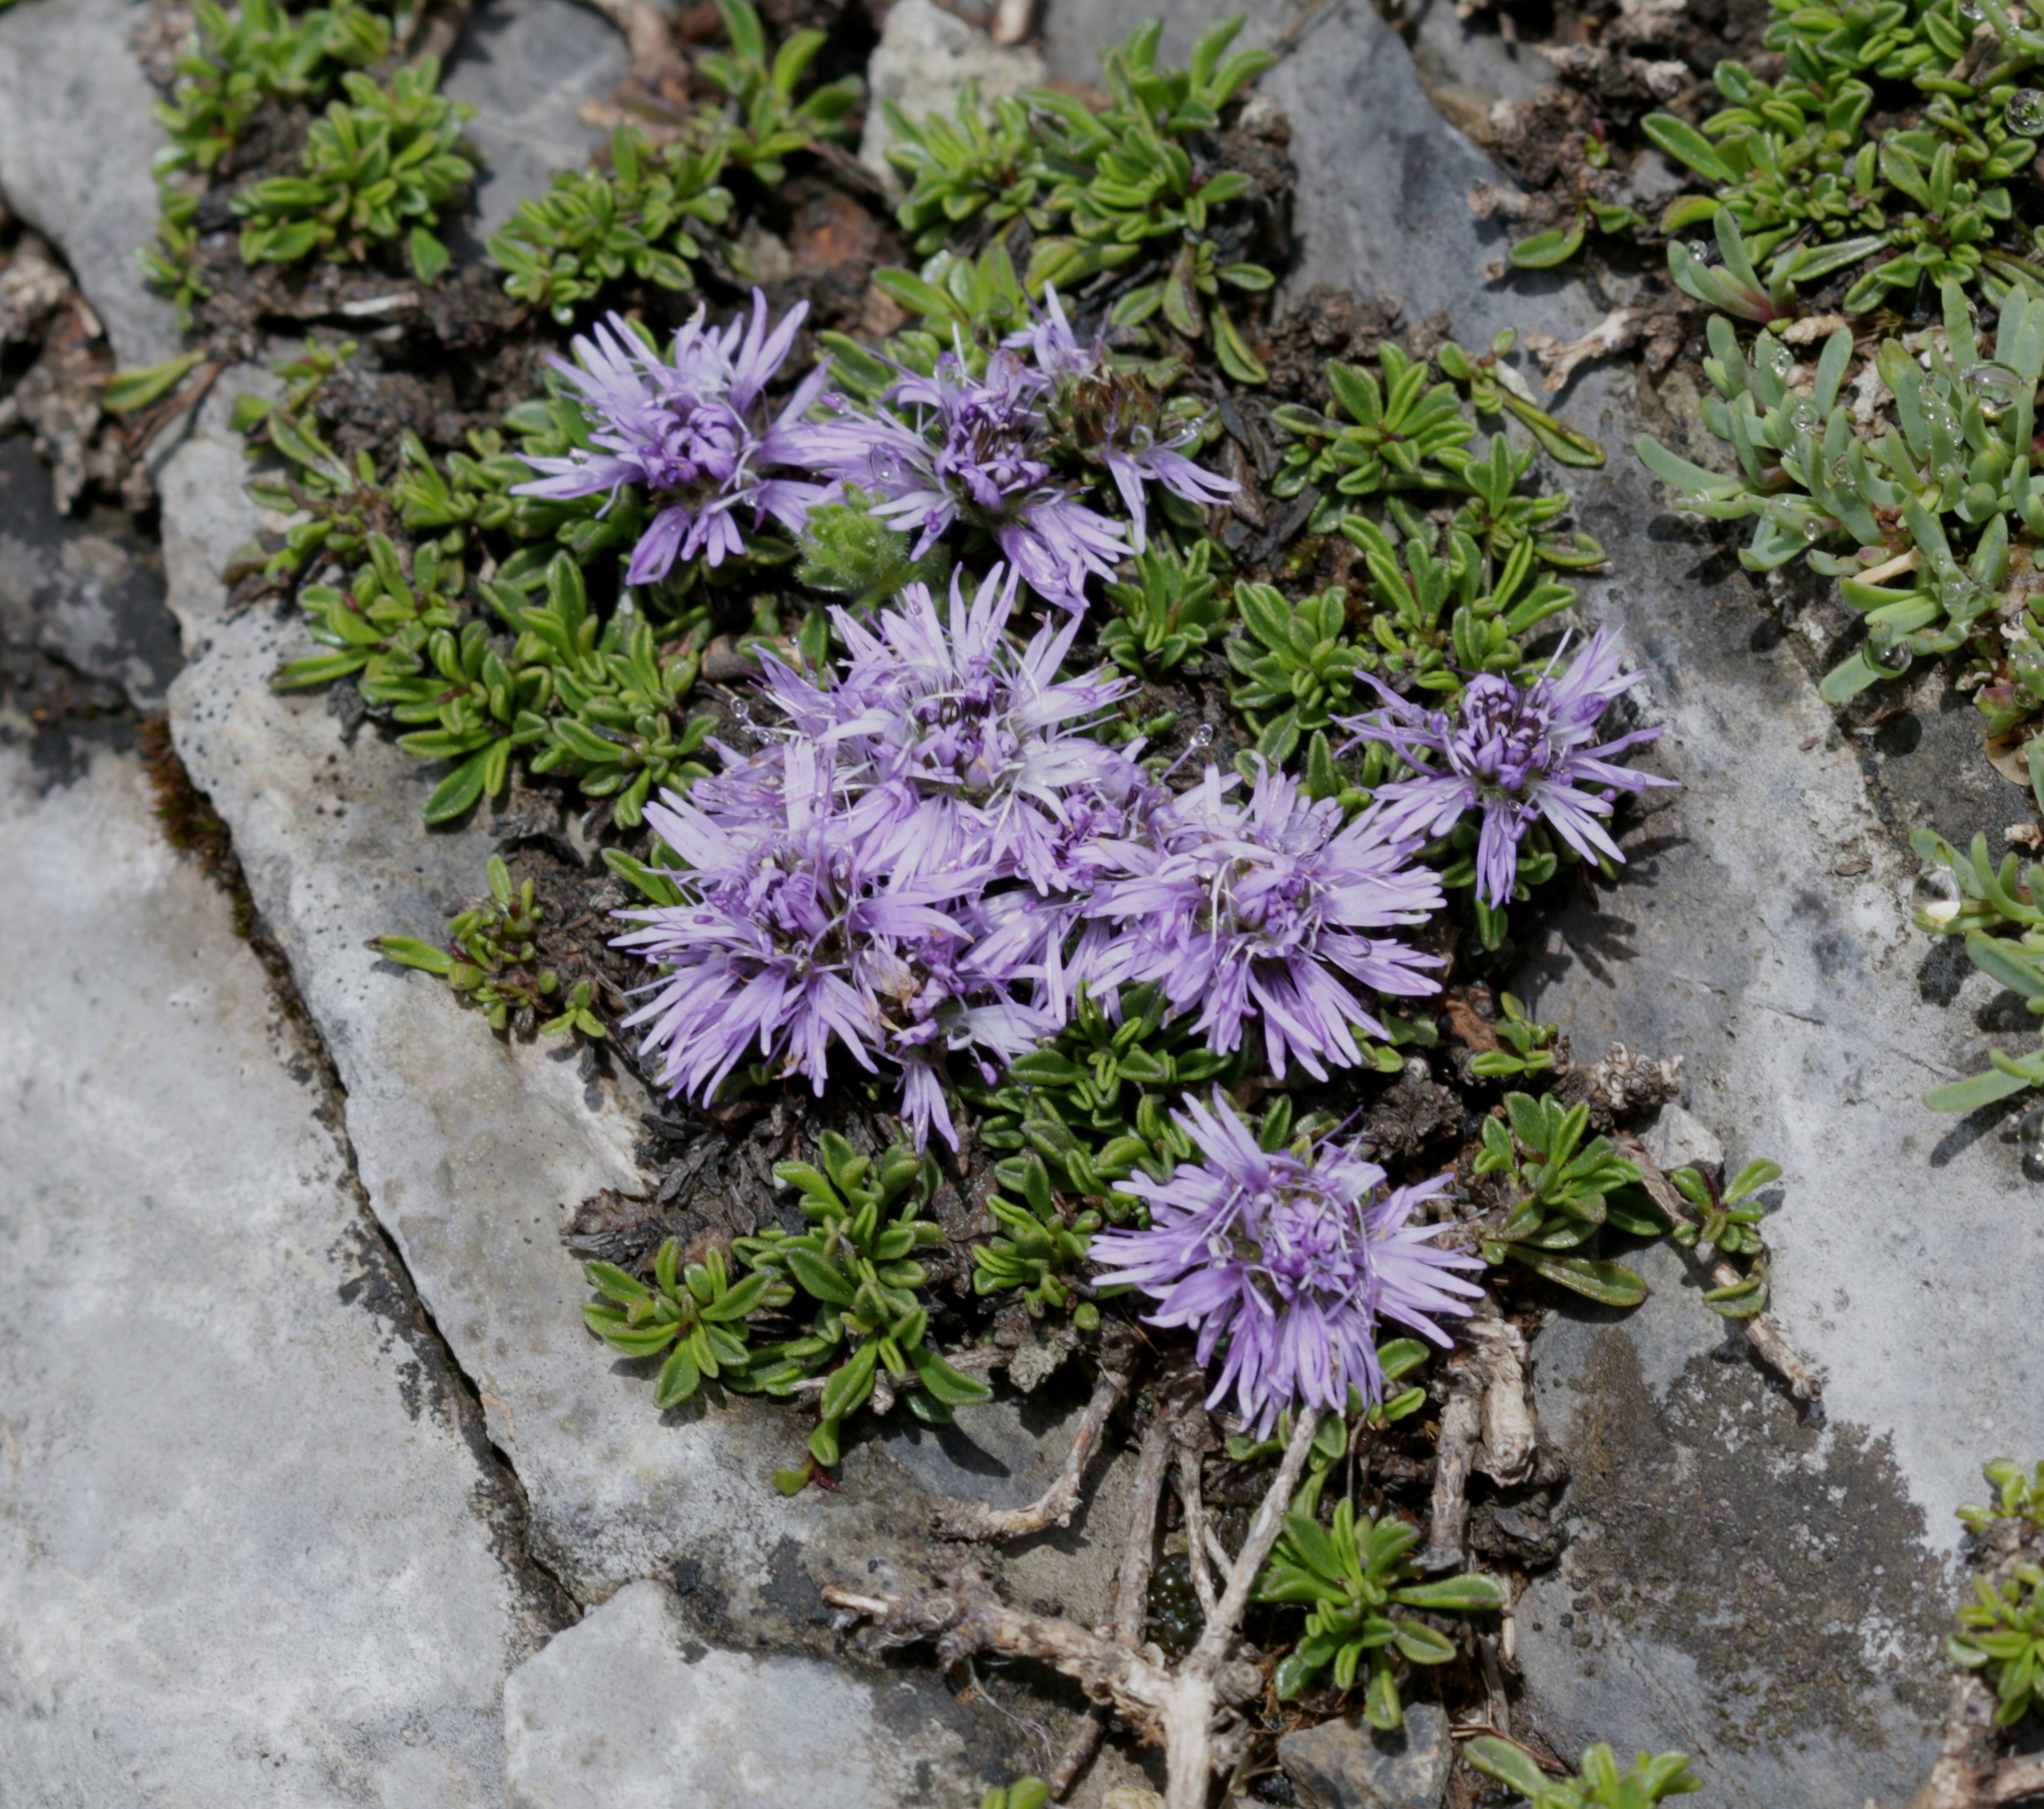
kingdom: Plantae
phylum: Tracheophyta
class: Magnoliopsida
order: Lamiales
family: Plantaginaceae
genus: Globularia
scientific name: Globularia repens
